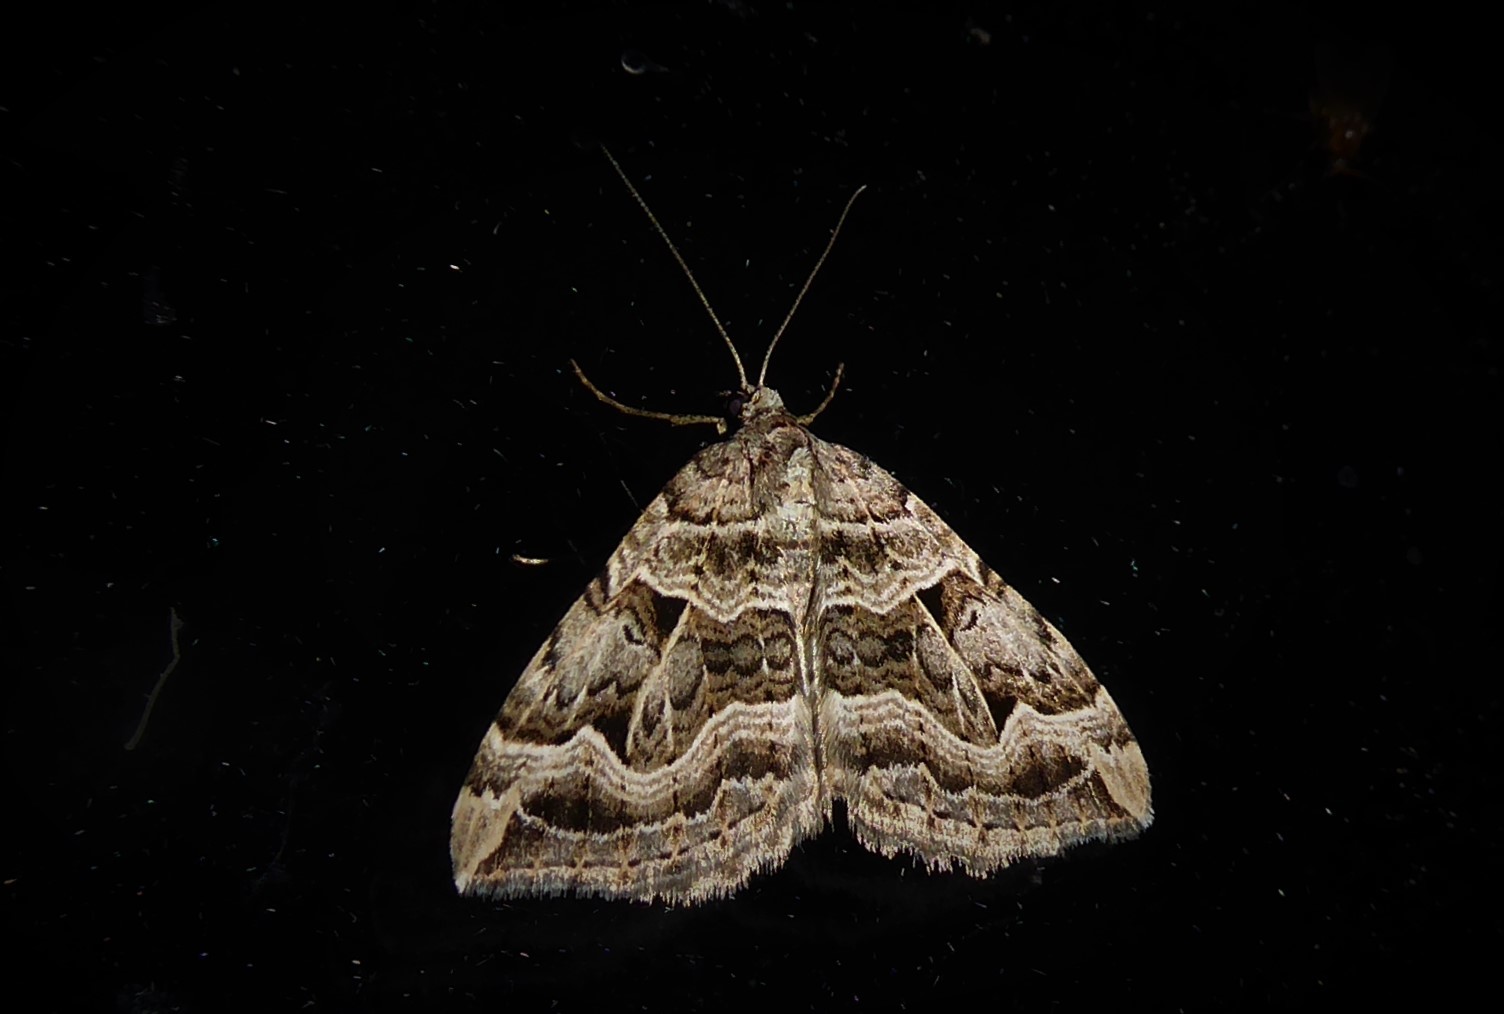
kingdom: Animalia
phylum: Arthropoda
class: Insecta
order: Lepidoptera
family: Geometridae
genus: Xanthorhoe
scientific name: Xanthorhoe semifissata
